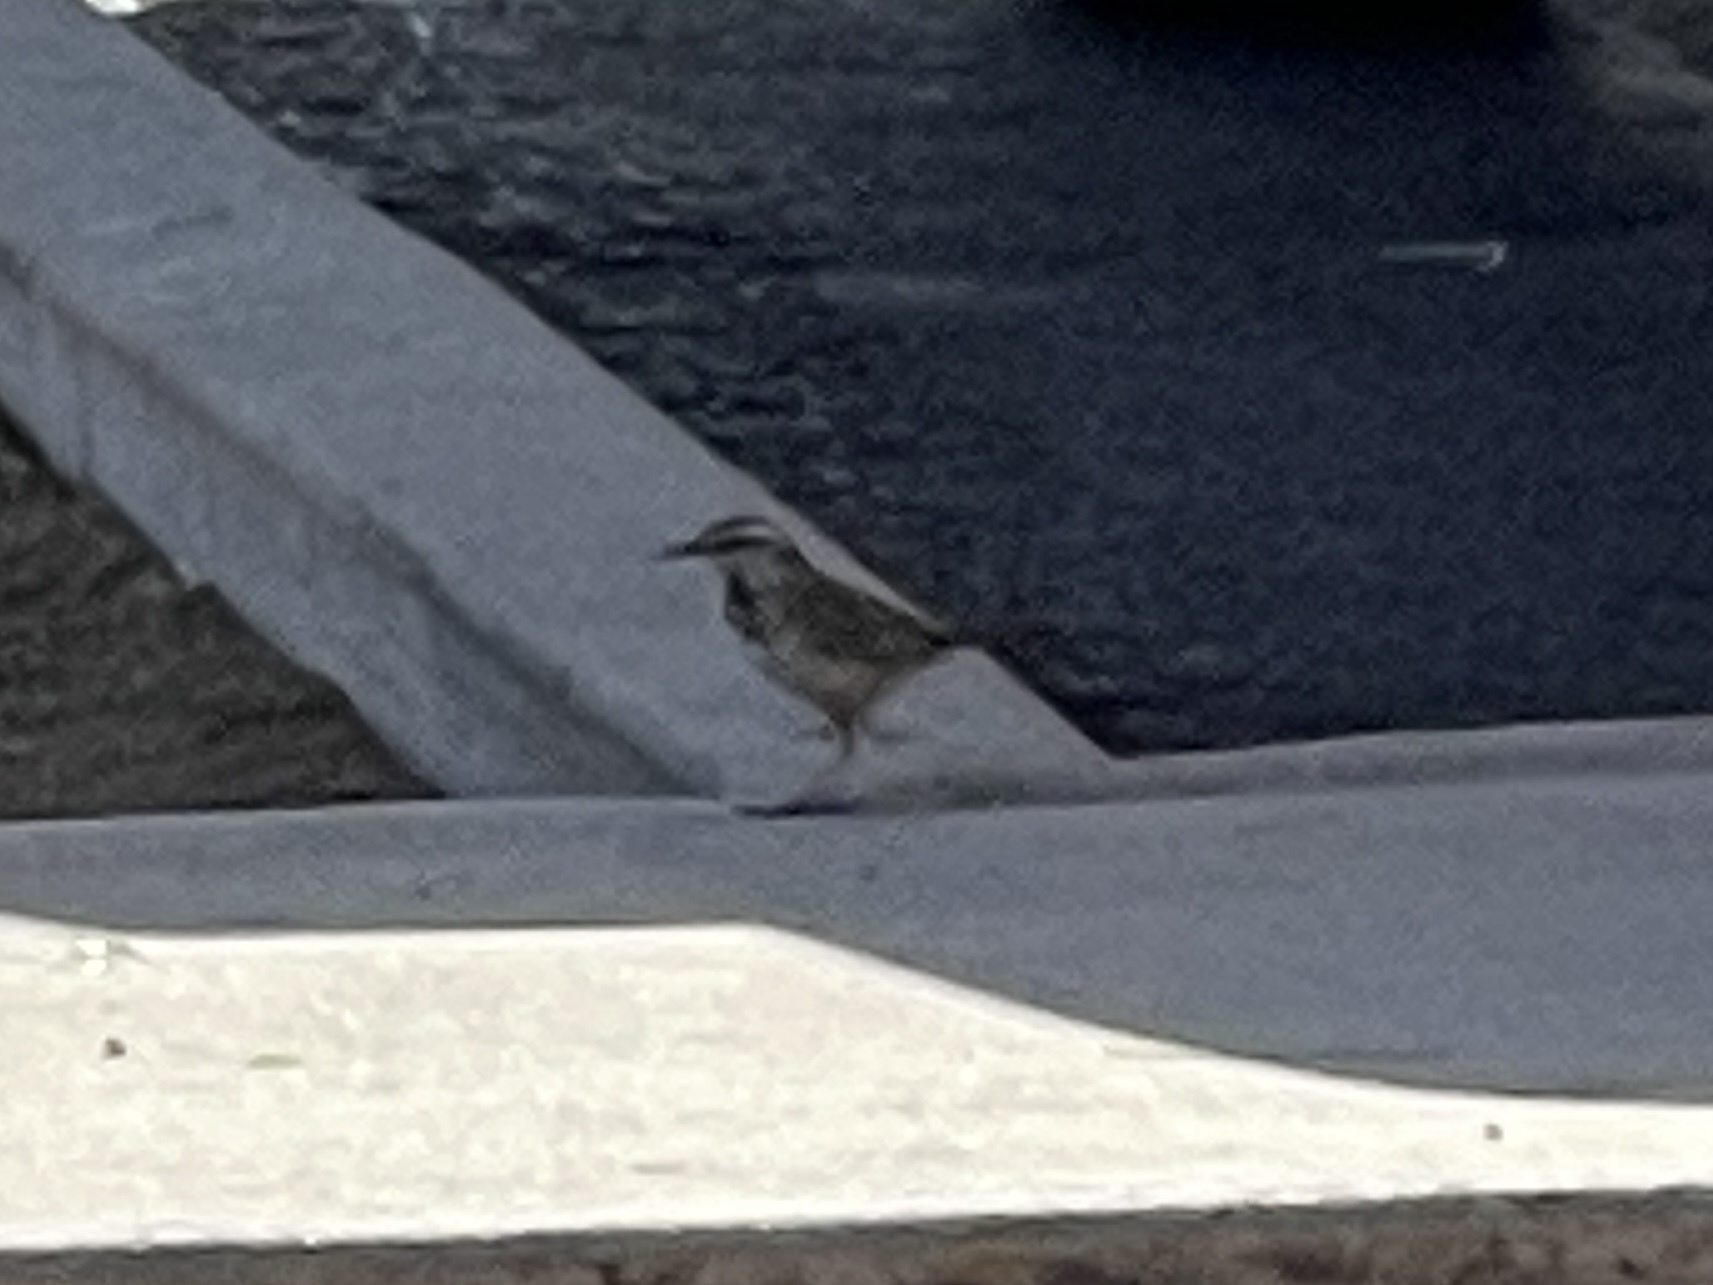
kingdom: Animalia
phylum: Chordata
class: Aves
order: Passeriformes
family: Troglodytidae
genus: Campylorhynchus
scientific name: Campylorhynchus brunneicapillus
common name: Cactus wren
